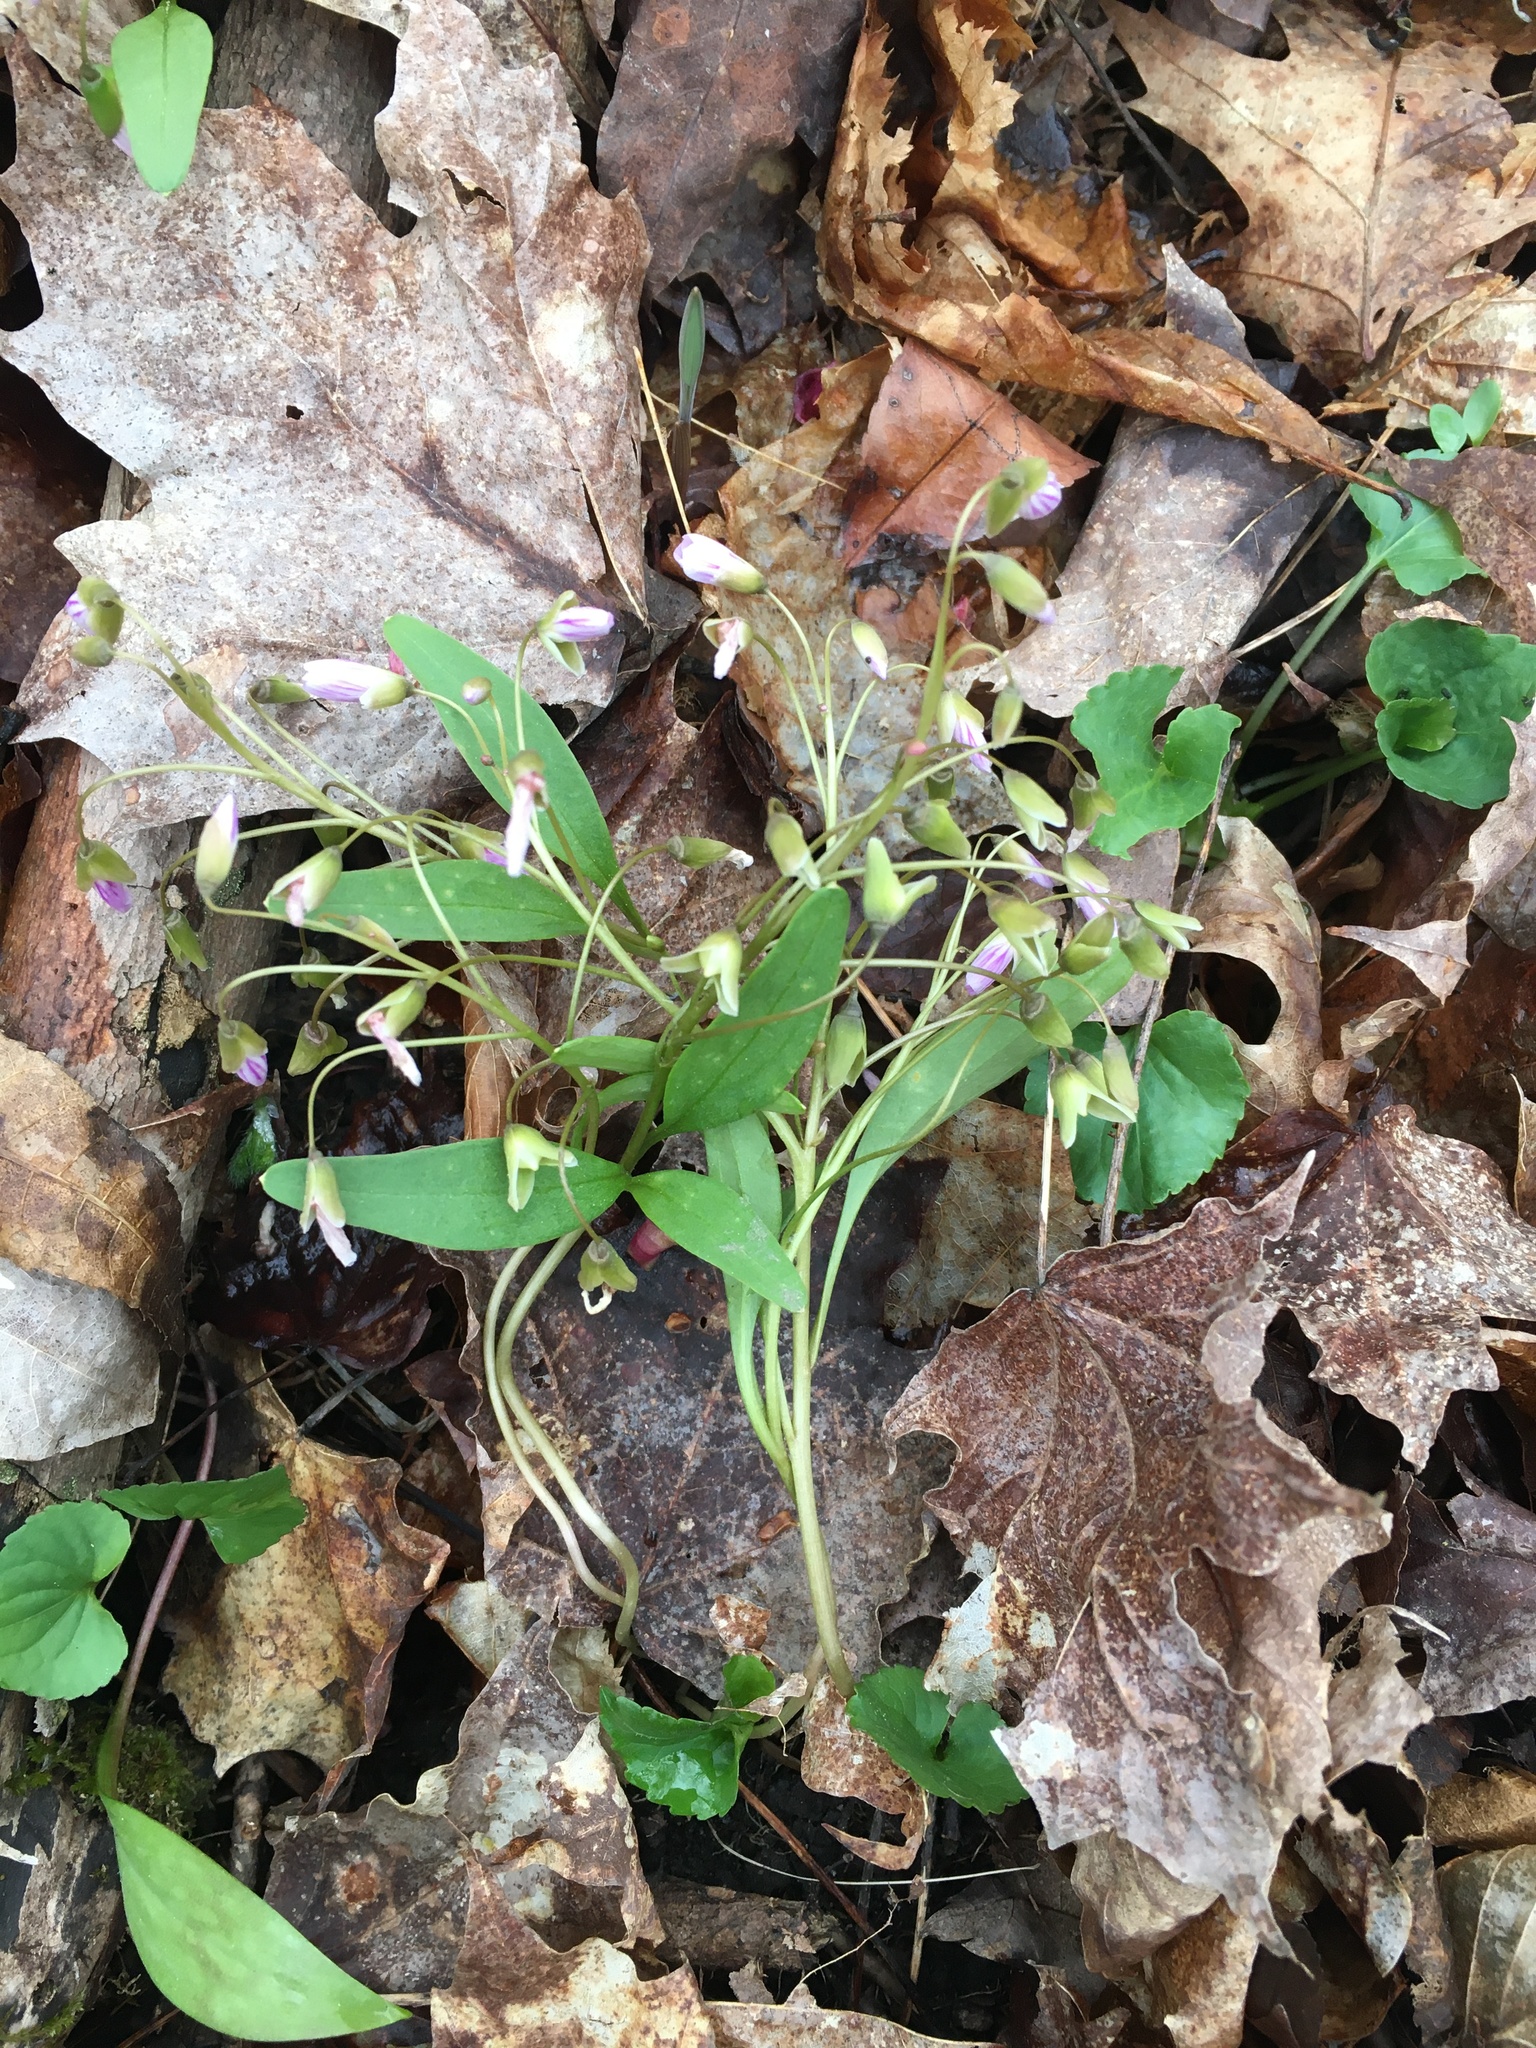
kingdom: Plantae
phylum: Tracheophyta
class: Magnoliopsida
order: Caryophyllales
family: Montiaceae
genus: Claytonia
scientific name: Claytonia caroliniana
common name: Carolina spring beauty
